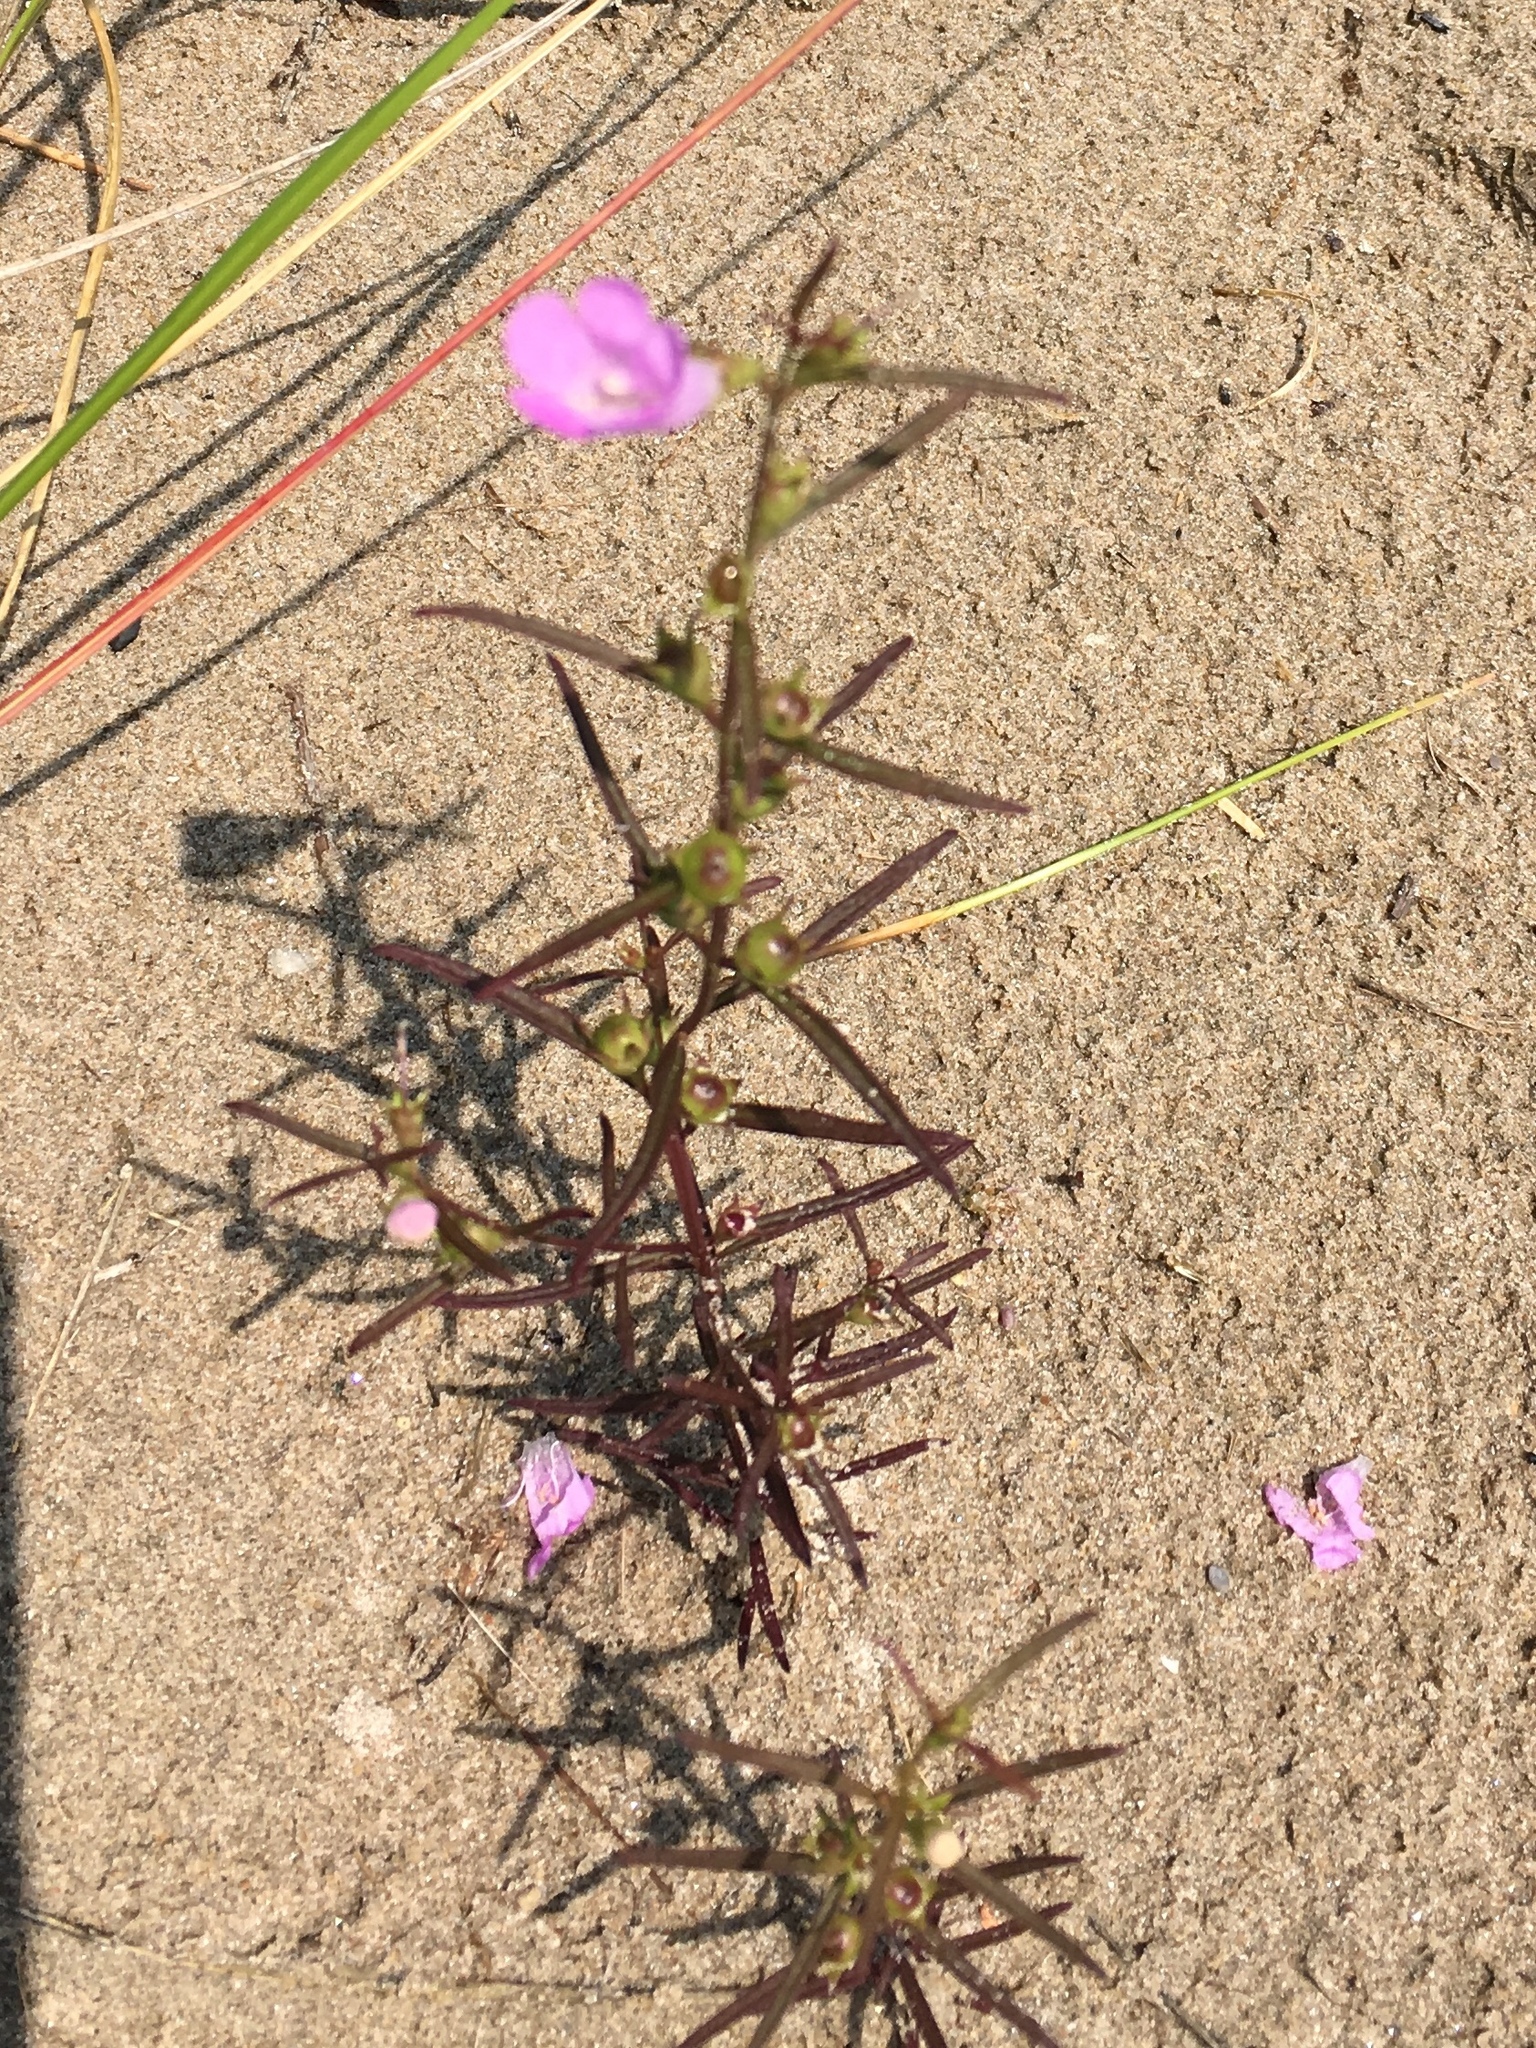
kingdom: Plantae
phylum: Tracheophyta
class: Magnoliopsida
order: Lamiales
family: Orobanchaceae
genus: Agalinis
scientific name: Agalinis purpurea
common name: Purple false foxglove
